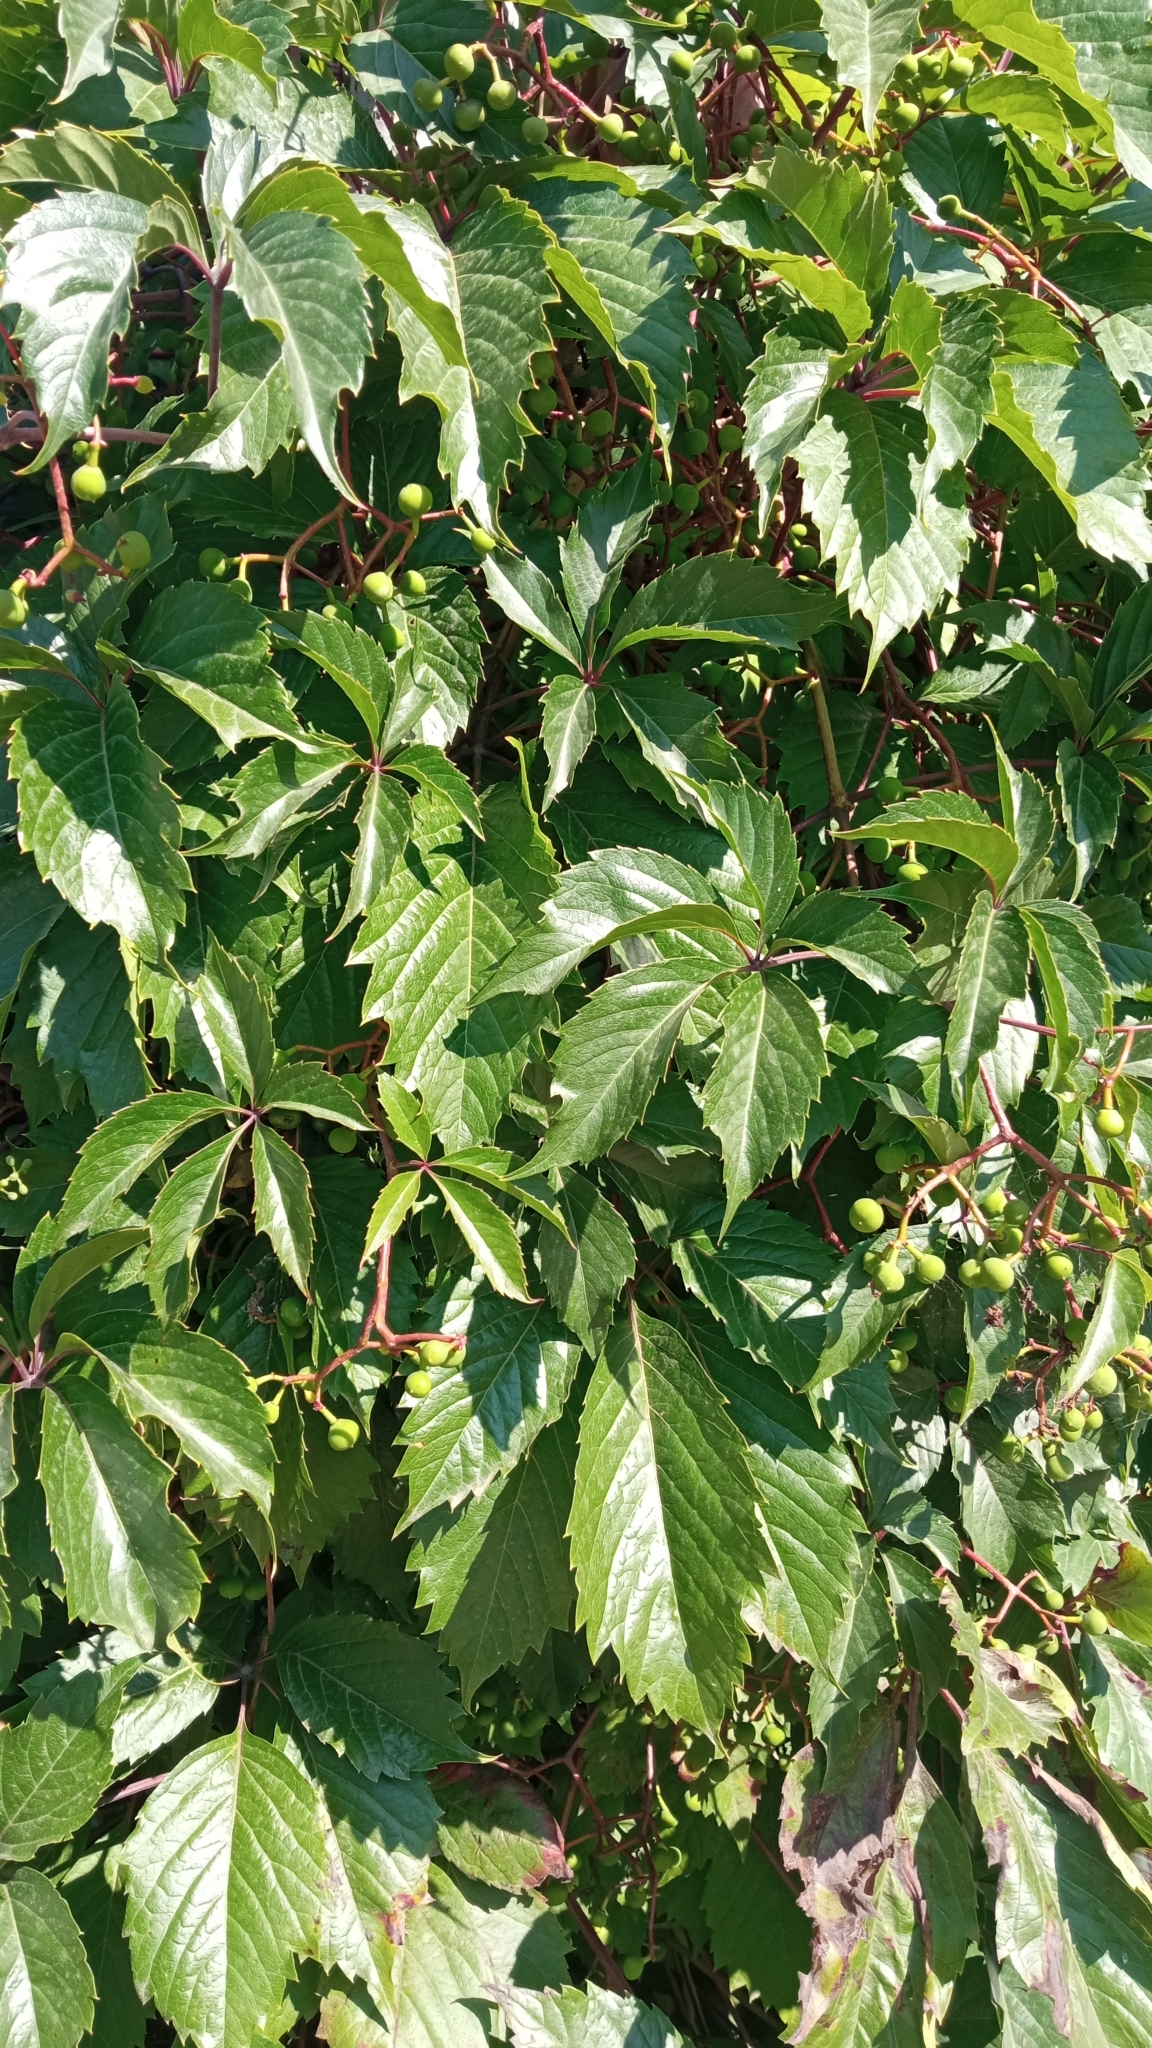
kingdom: Plantae
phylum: Tracheophyta
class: Magnoliopsida
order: Vitales
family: Vitaceae
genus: Parthenocissus
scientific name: Parthenocissus inserta
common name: False virginia-creeper
